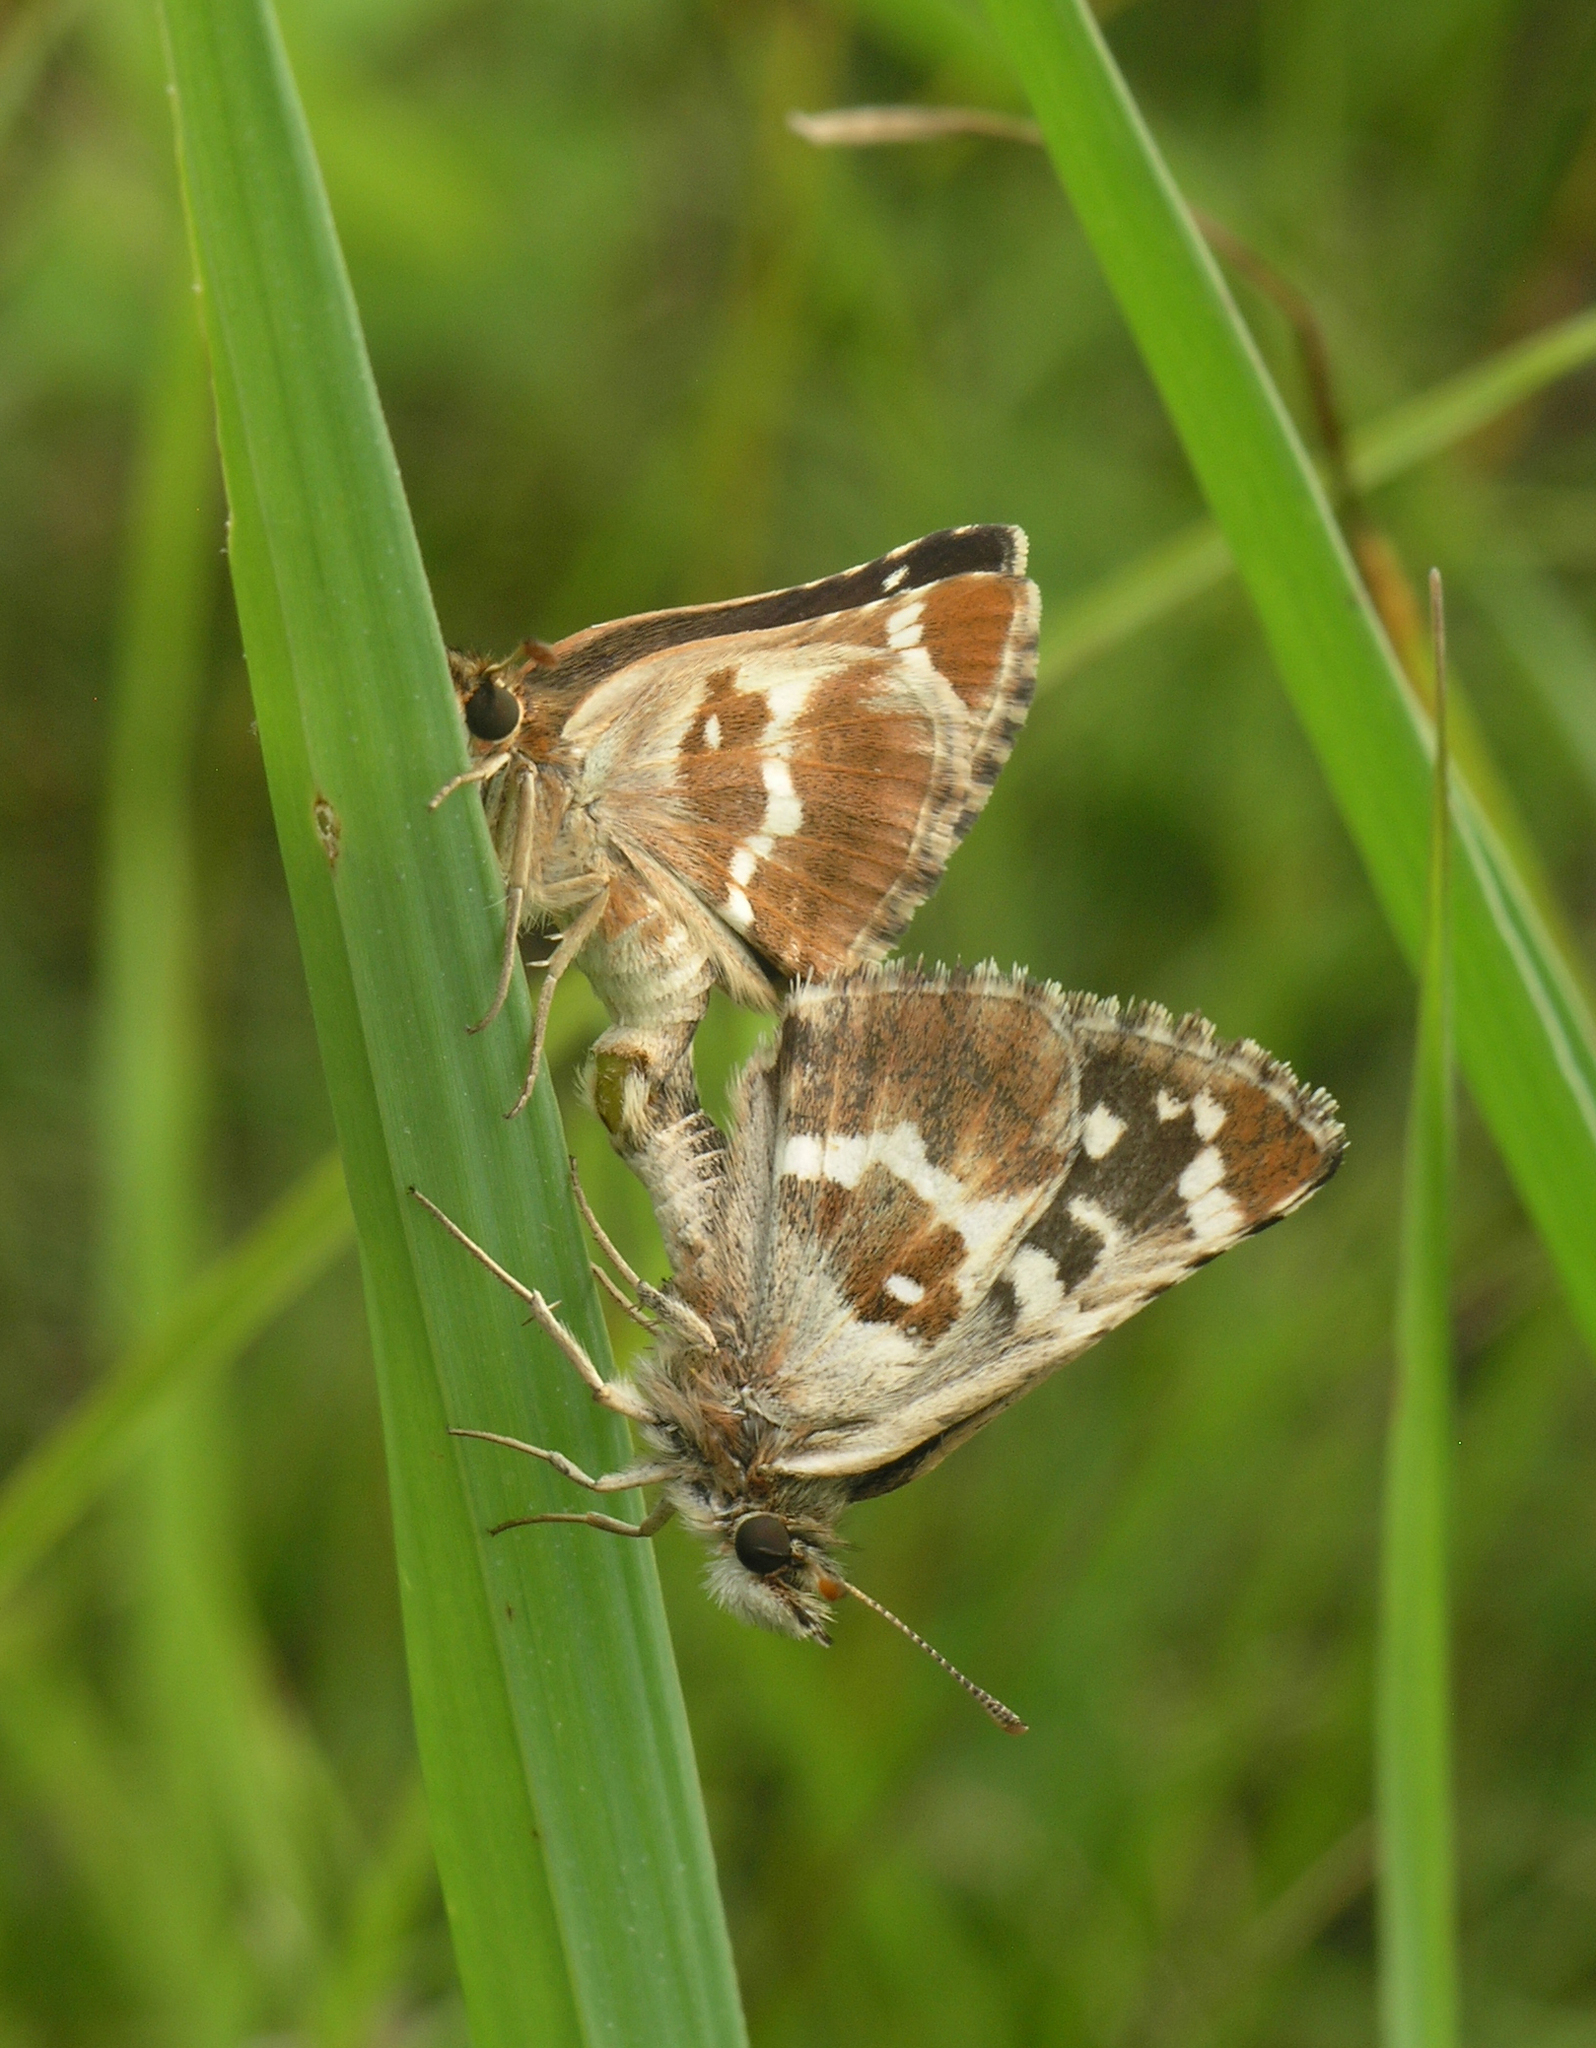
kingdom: Animalia
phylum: Arthropoda
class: Insecta
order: Lepidoptera
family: Hesperiidae
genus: Pyrgus
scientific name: Pyrgus maculatus
